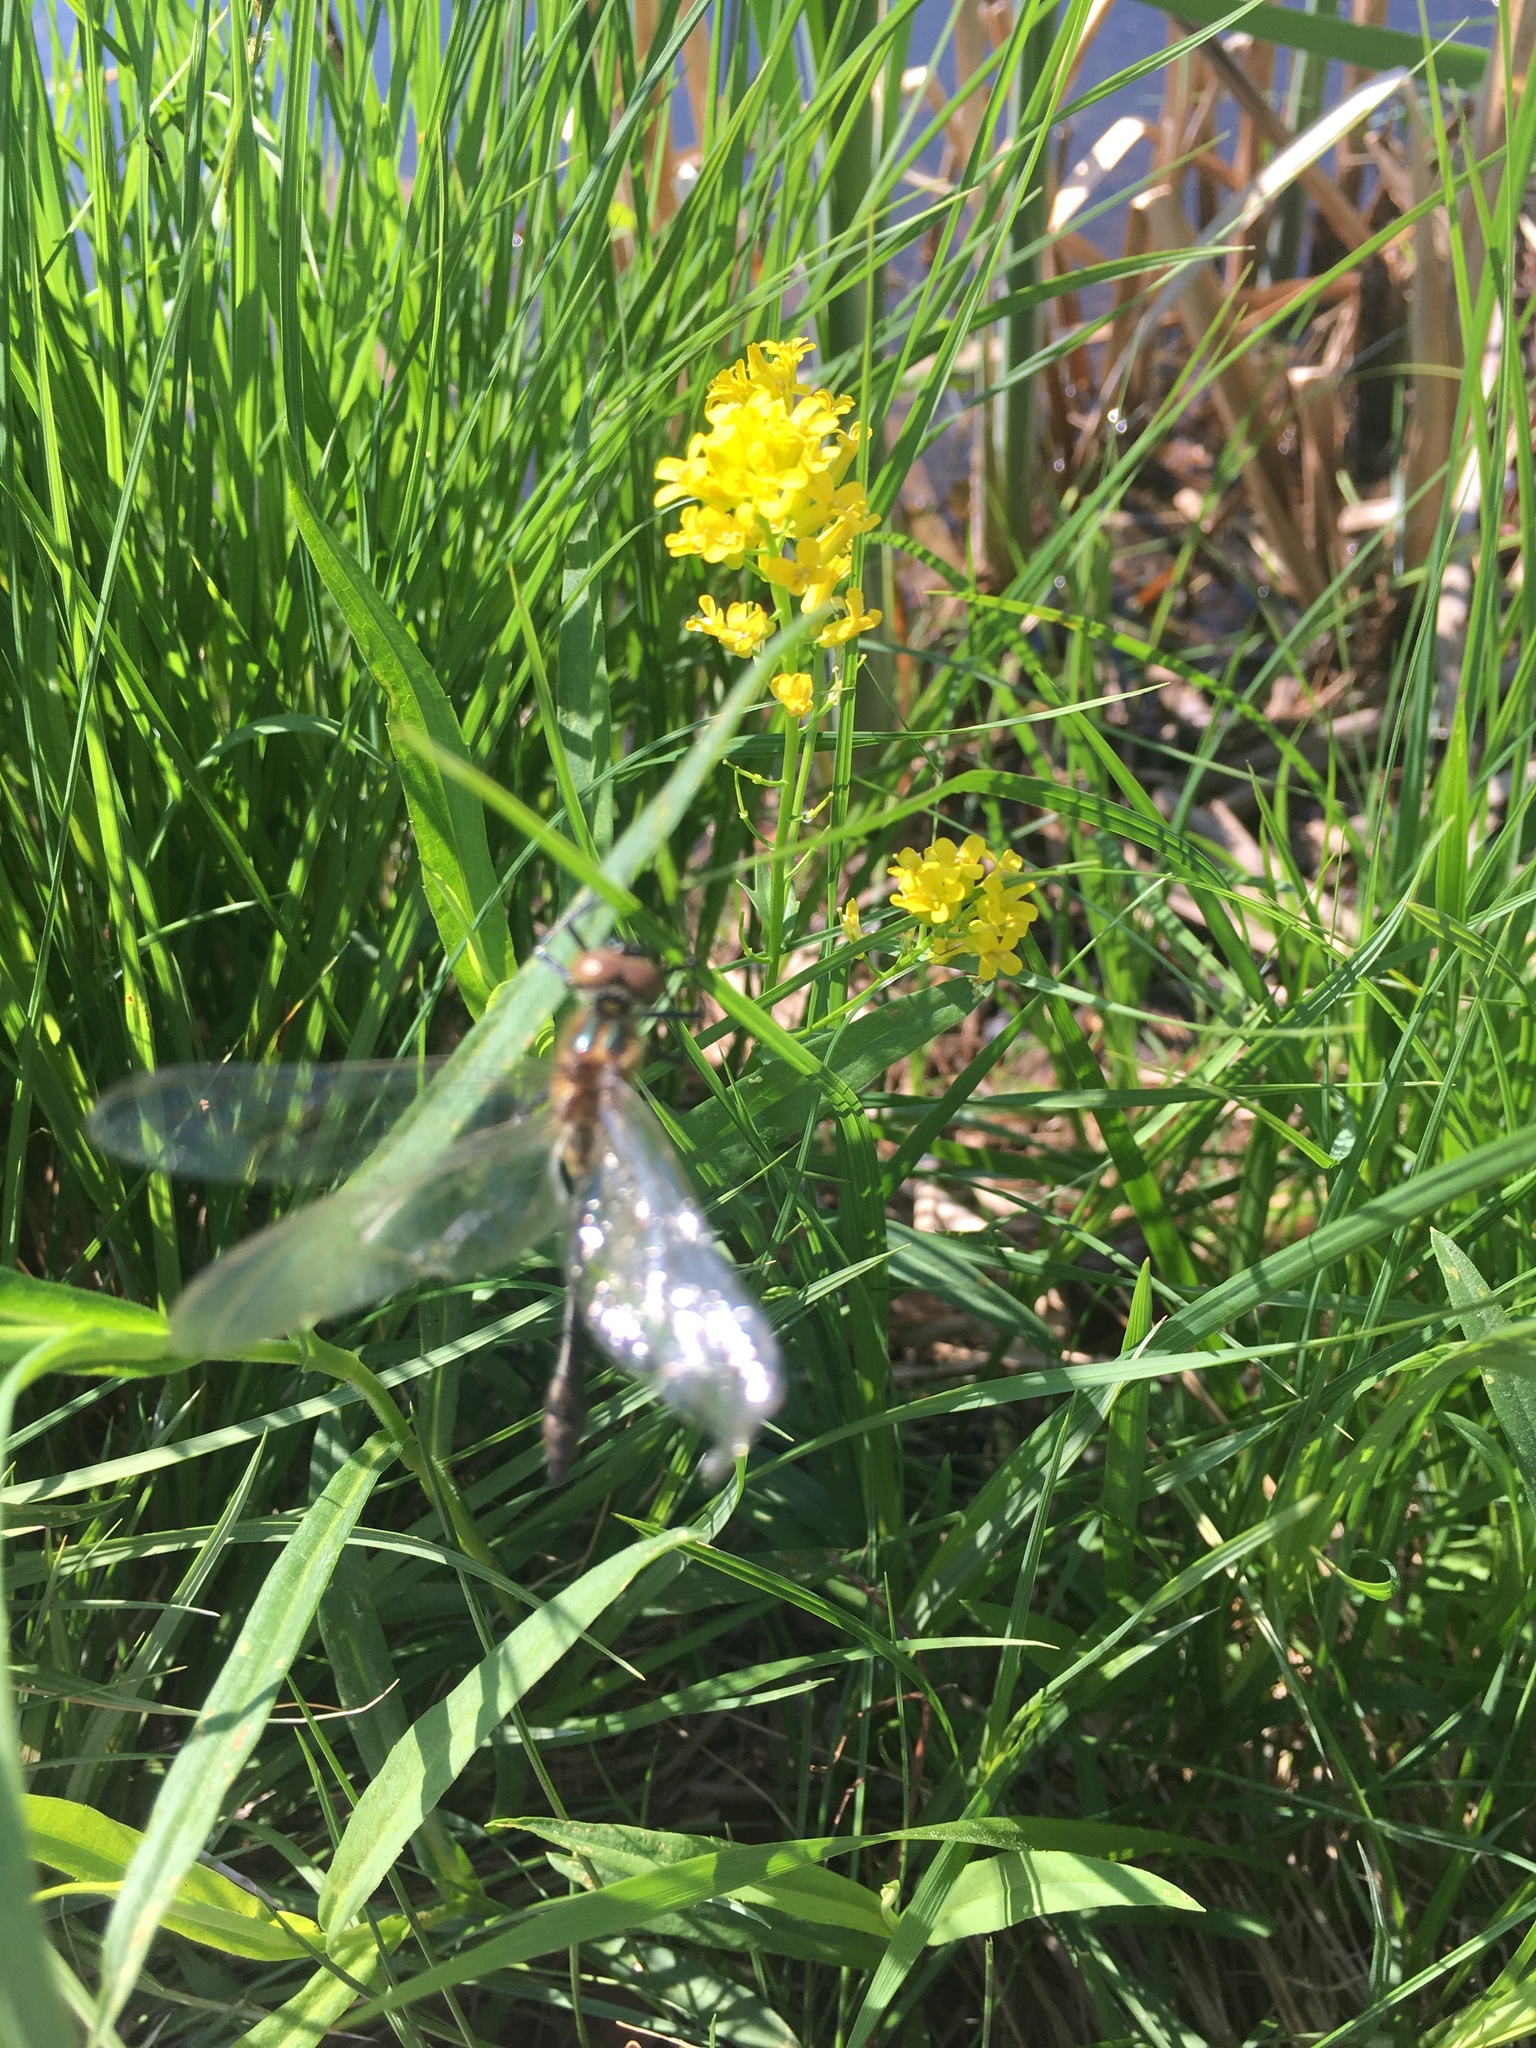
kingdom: Animalia
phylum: Arthropoda
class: Insecta
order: Odonata
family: Corduliidae
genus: Dorocordulia
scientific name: Dorocordulia libera
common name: Racket-tailed emerald
